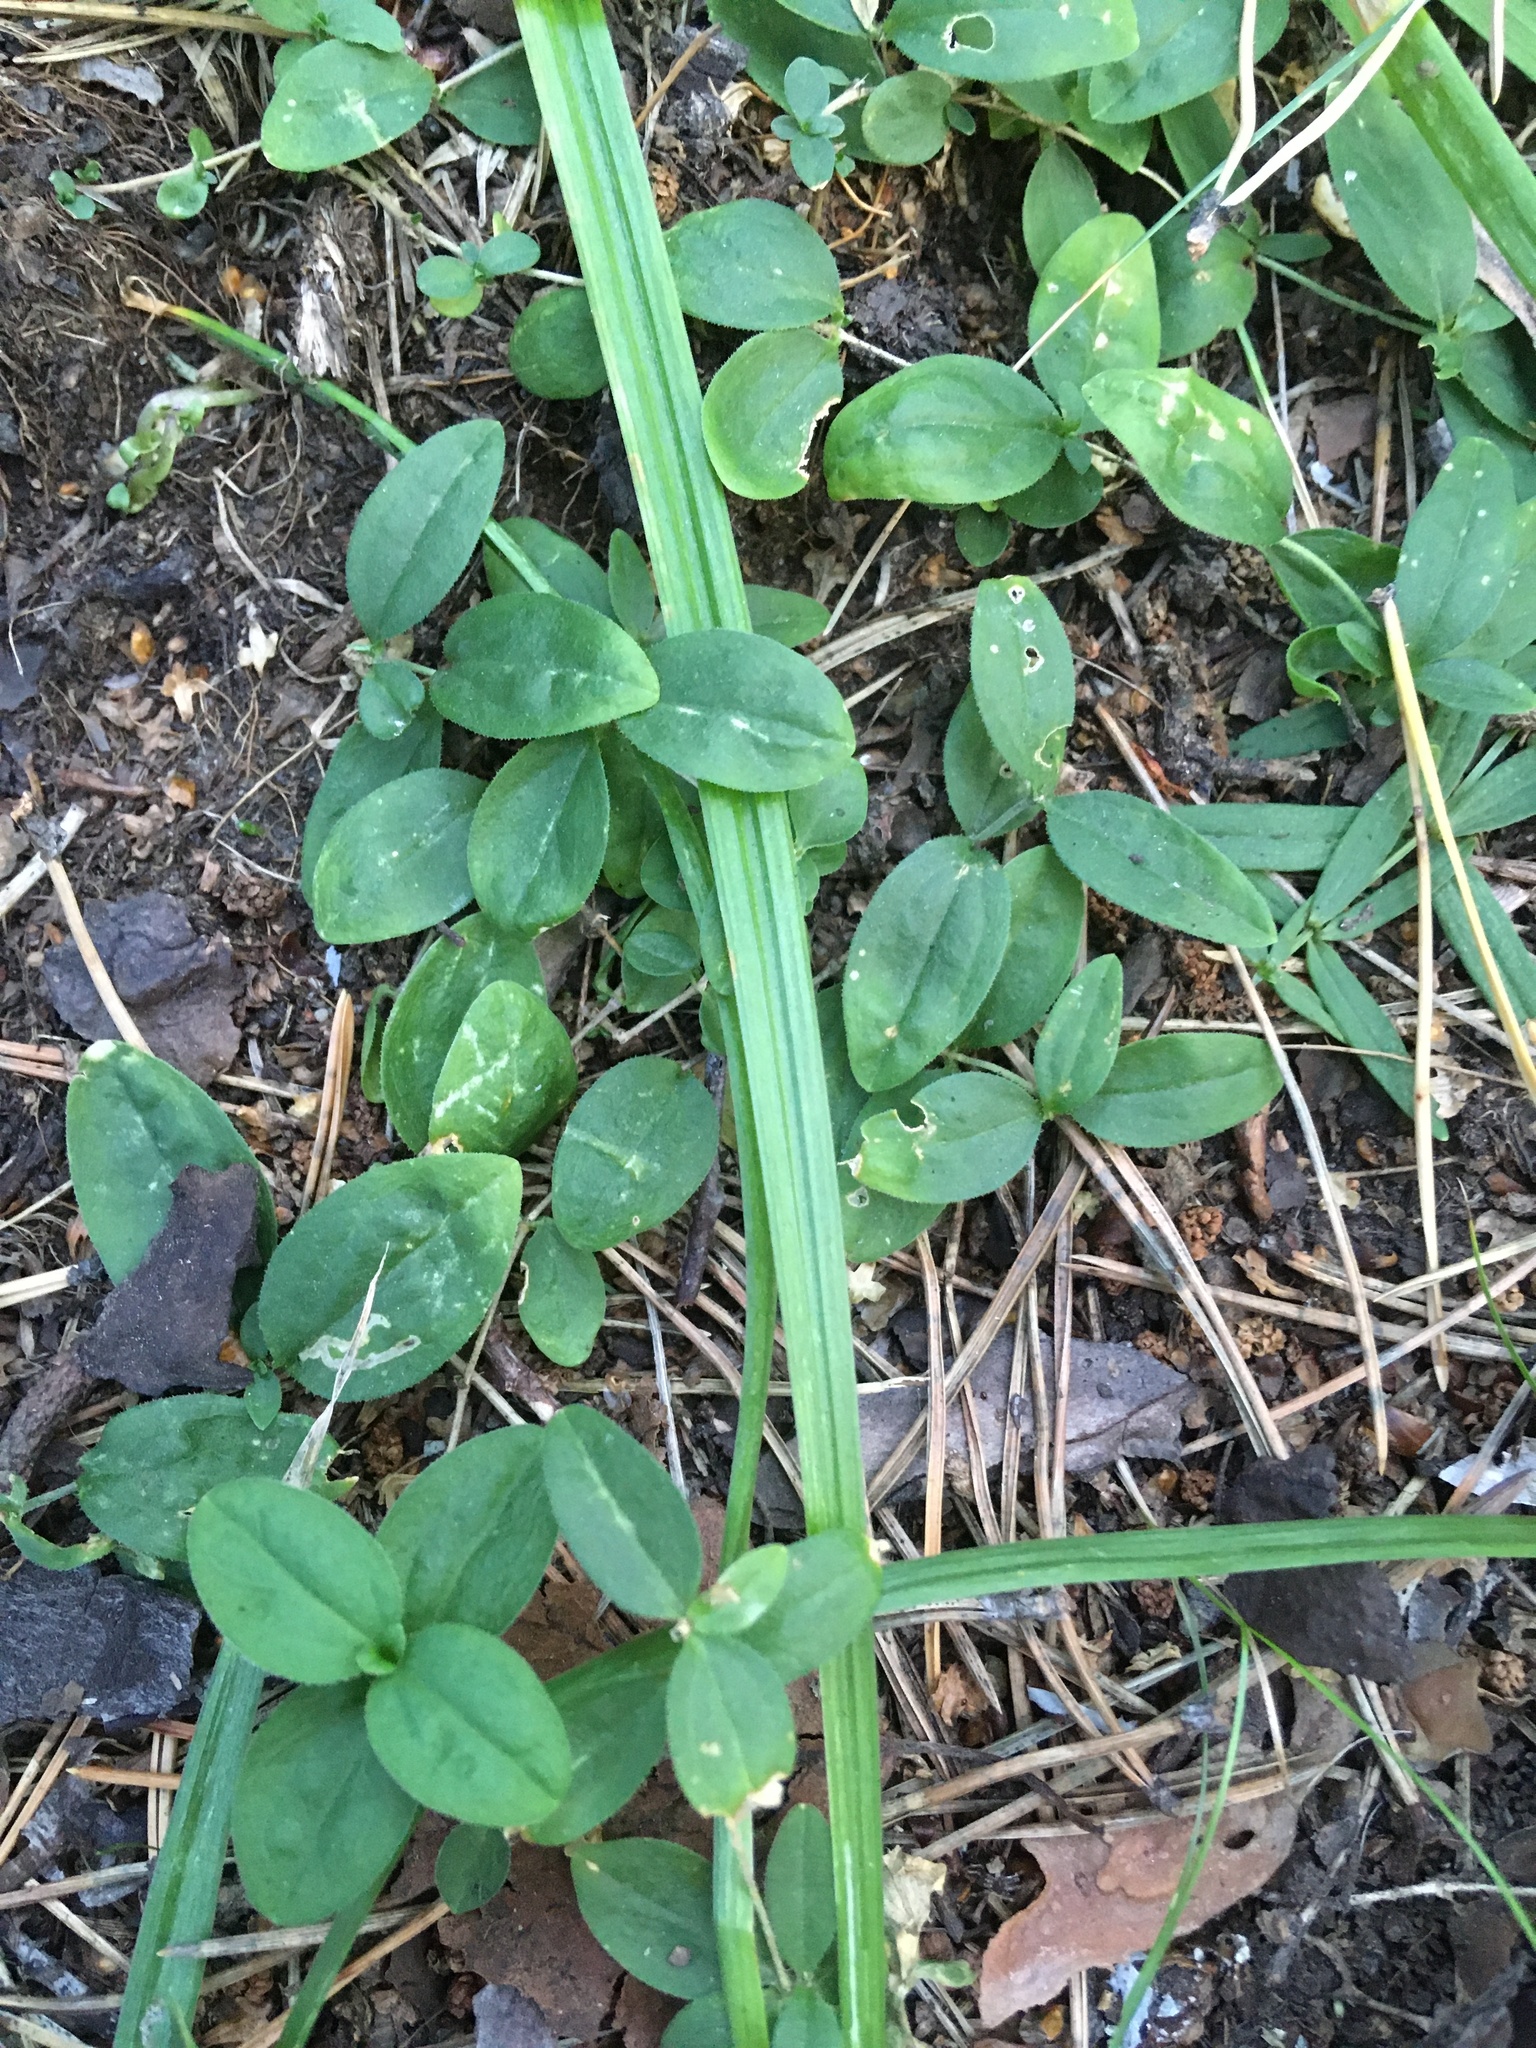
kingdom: Plantae
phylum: Tracheophyta
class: Magnoliopsida
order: Caryophyllales
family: Caryophyllaceae
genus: Moehringia
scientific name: Moehringia lateriflora
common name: Blunt-leaved sandwort
